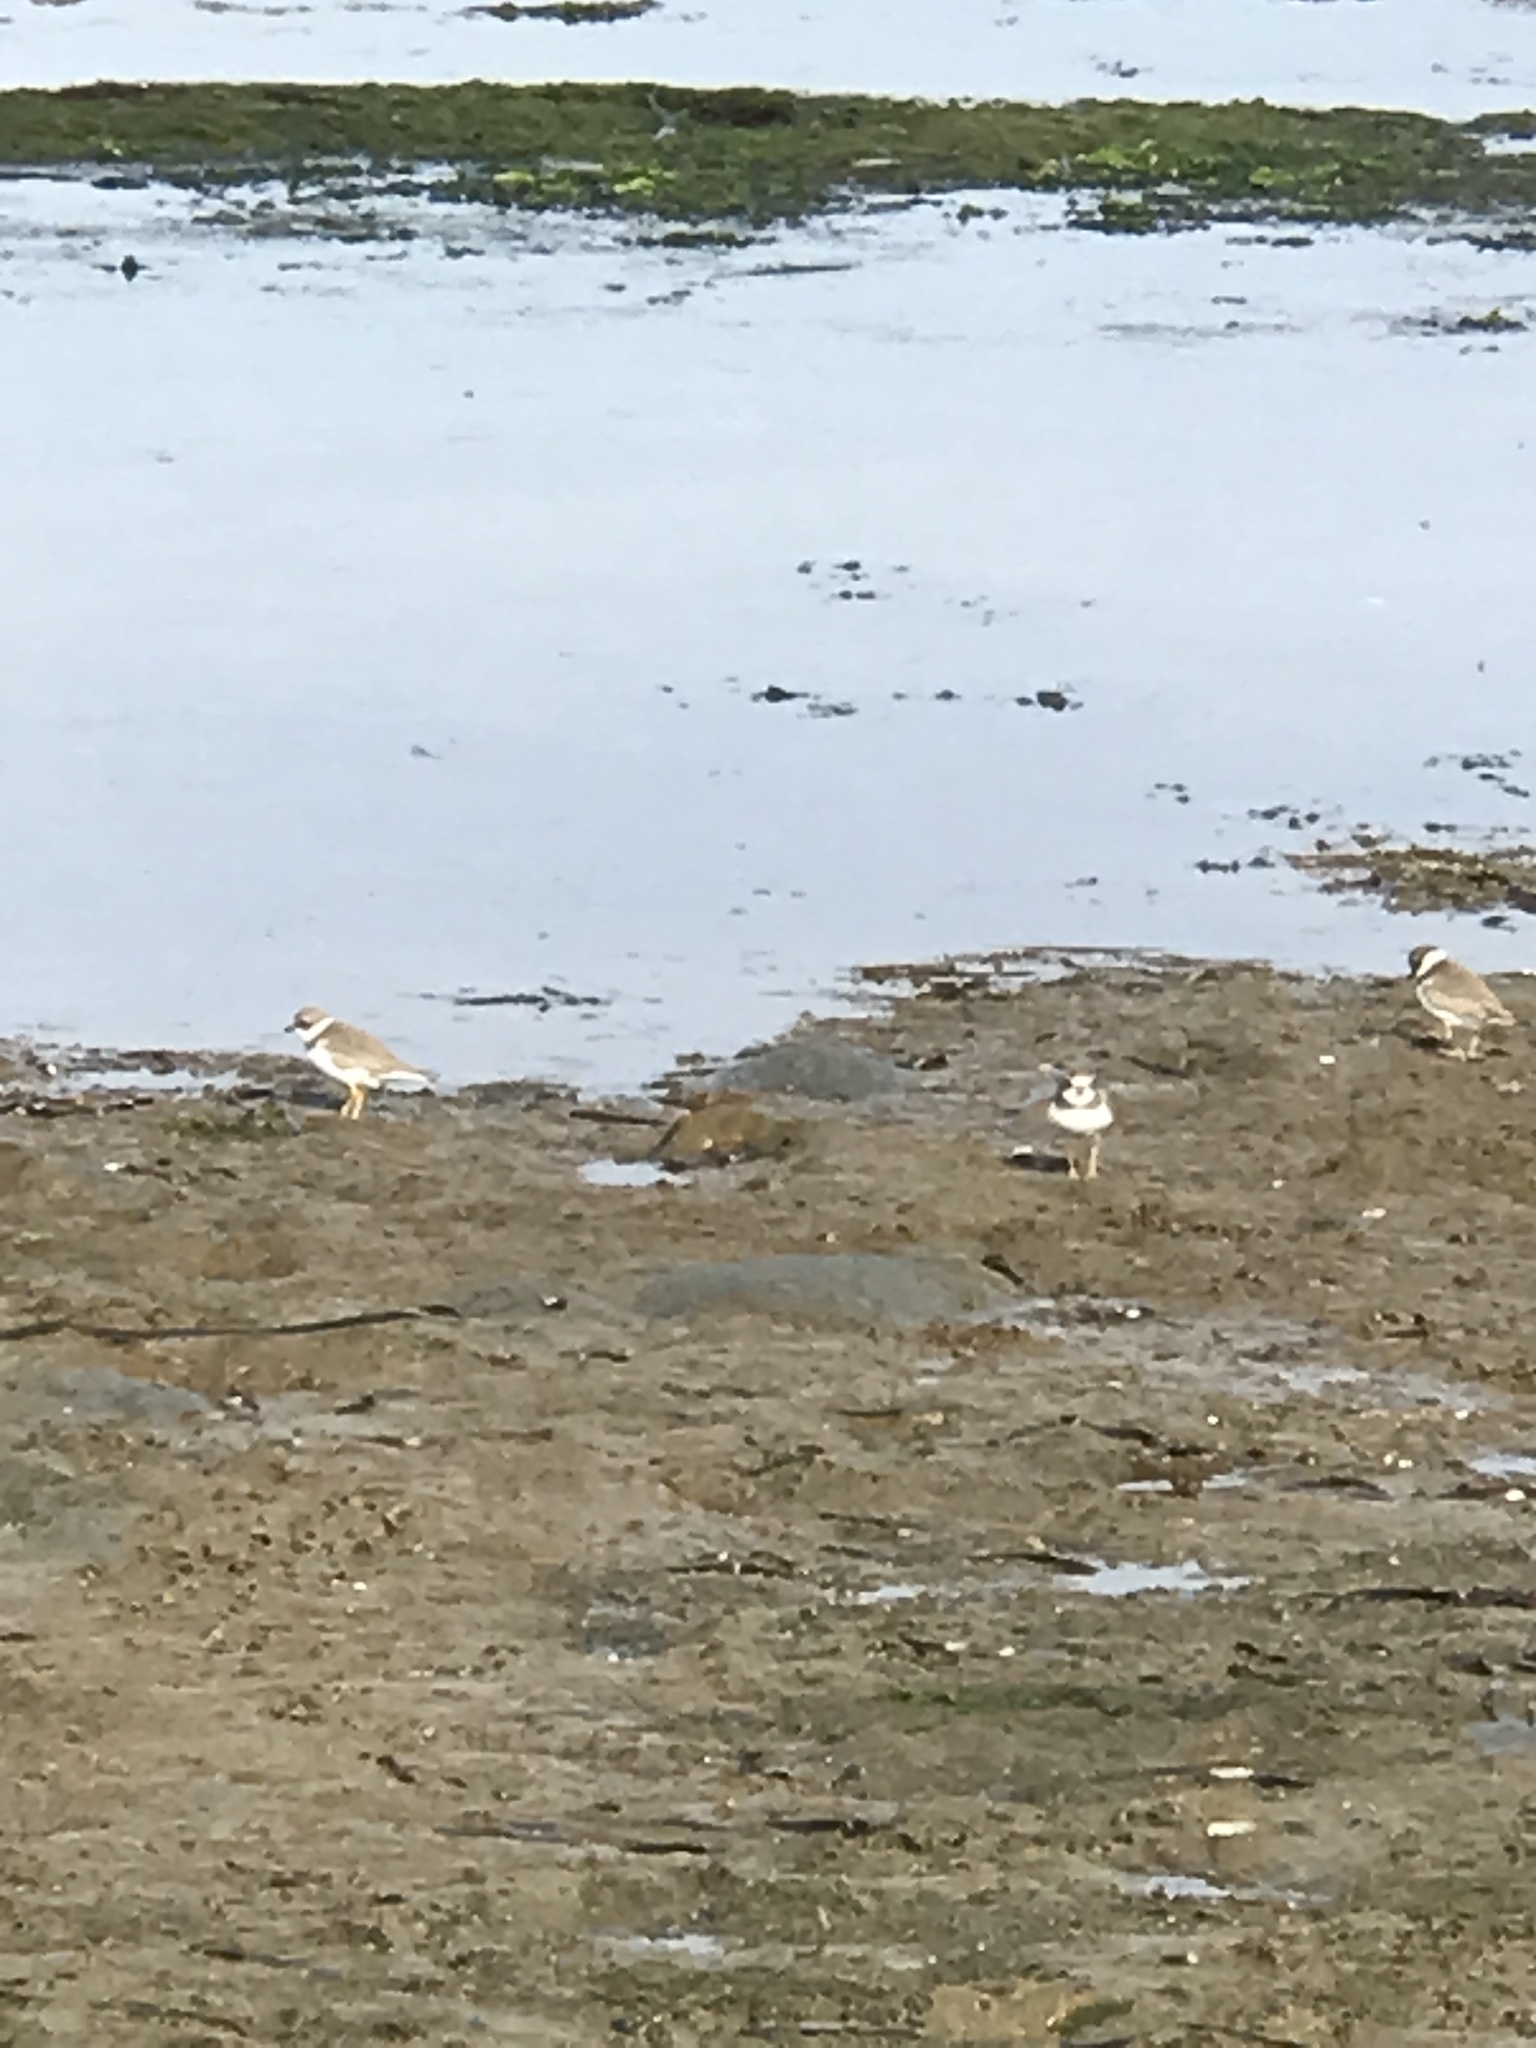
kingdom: Animalia
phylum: Chordata
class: Aves
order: Charadriiformes
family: Charadriidae
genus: Charadrius
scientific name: Charadrius semipalmatus
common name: Semipalmated plover
